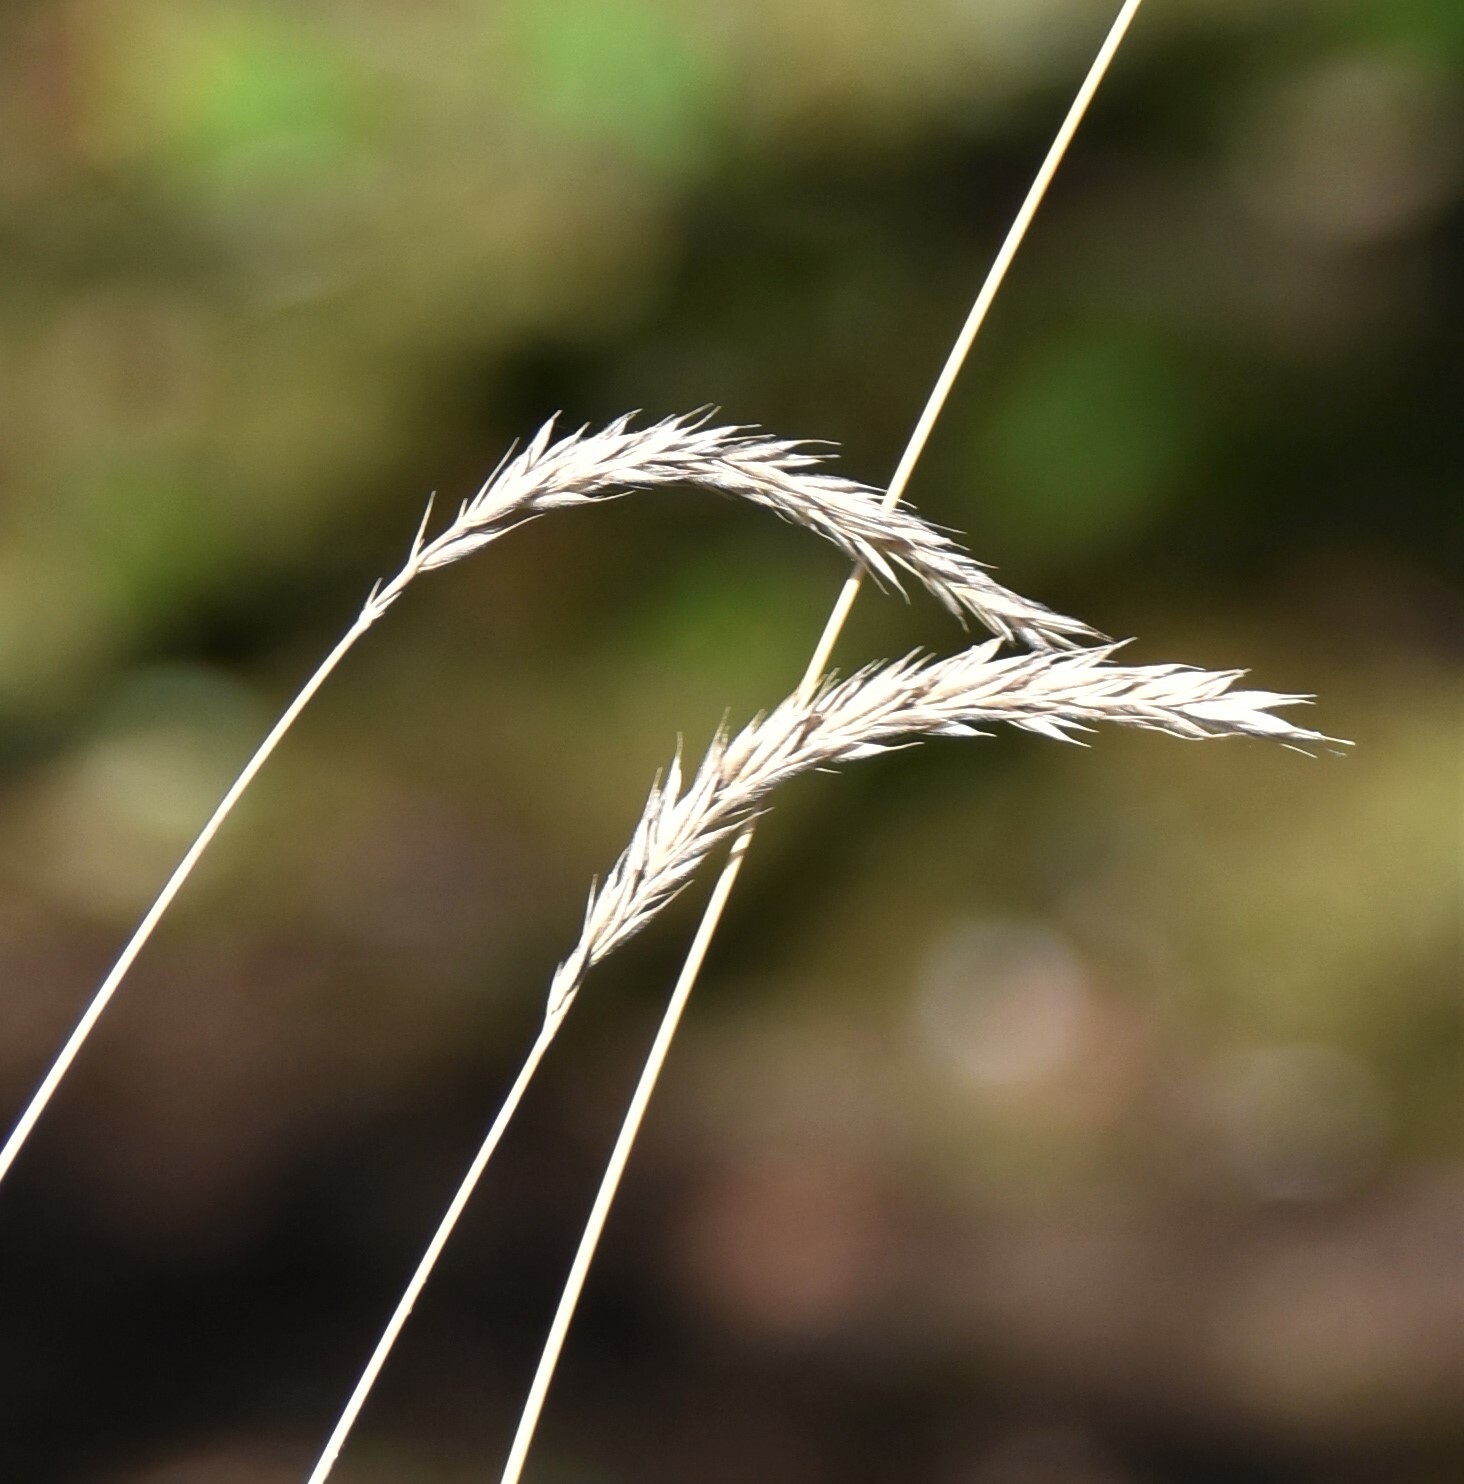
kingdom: Plantae
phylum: Tracheophyta
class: Liliopsida
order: Poales
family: Poaceae
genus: Leymus
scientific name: Leymus innovatus
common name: Boreal wild rye
